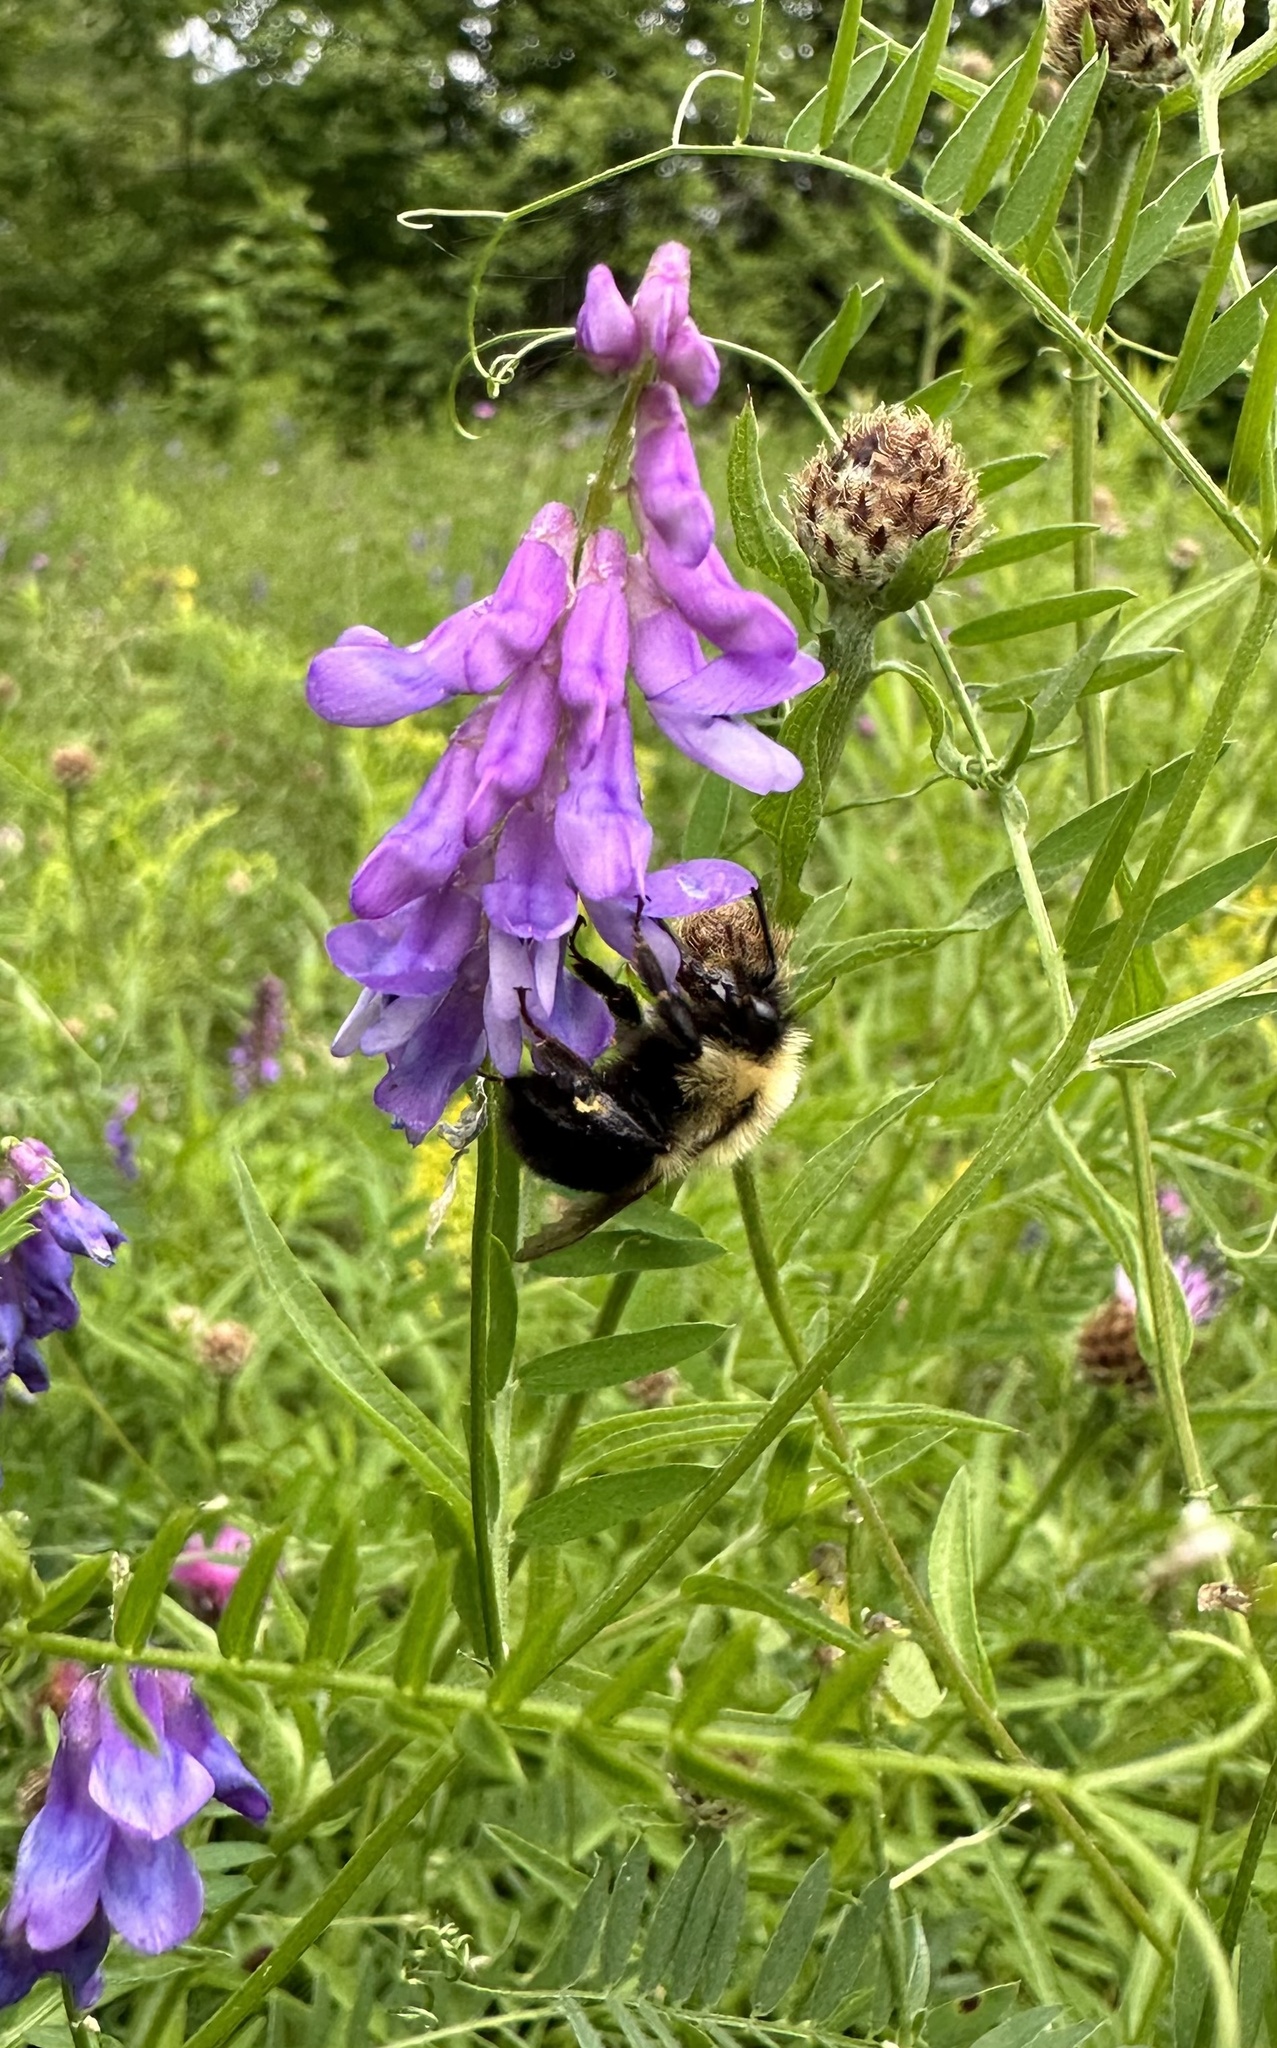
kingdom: Animalia
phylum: Arthropoda
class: Insecta
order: Hymenoptera
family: Apidae
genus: Bombus
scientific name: Bombus bimaculatus
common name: Two-spotted bumble bee
